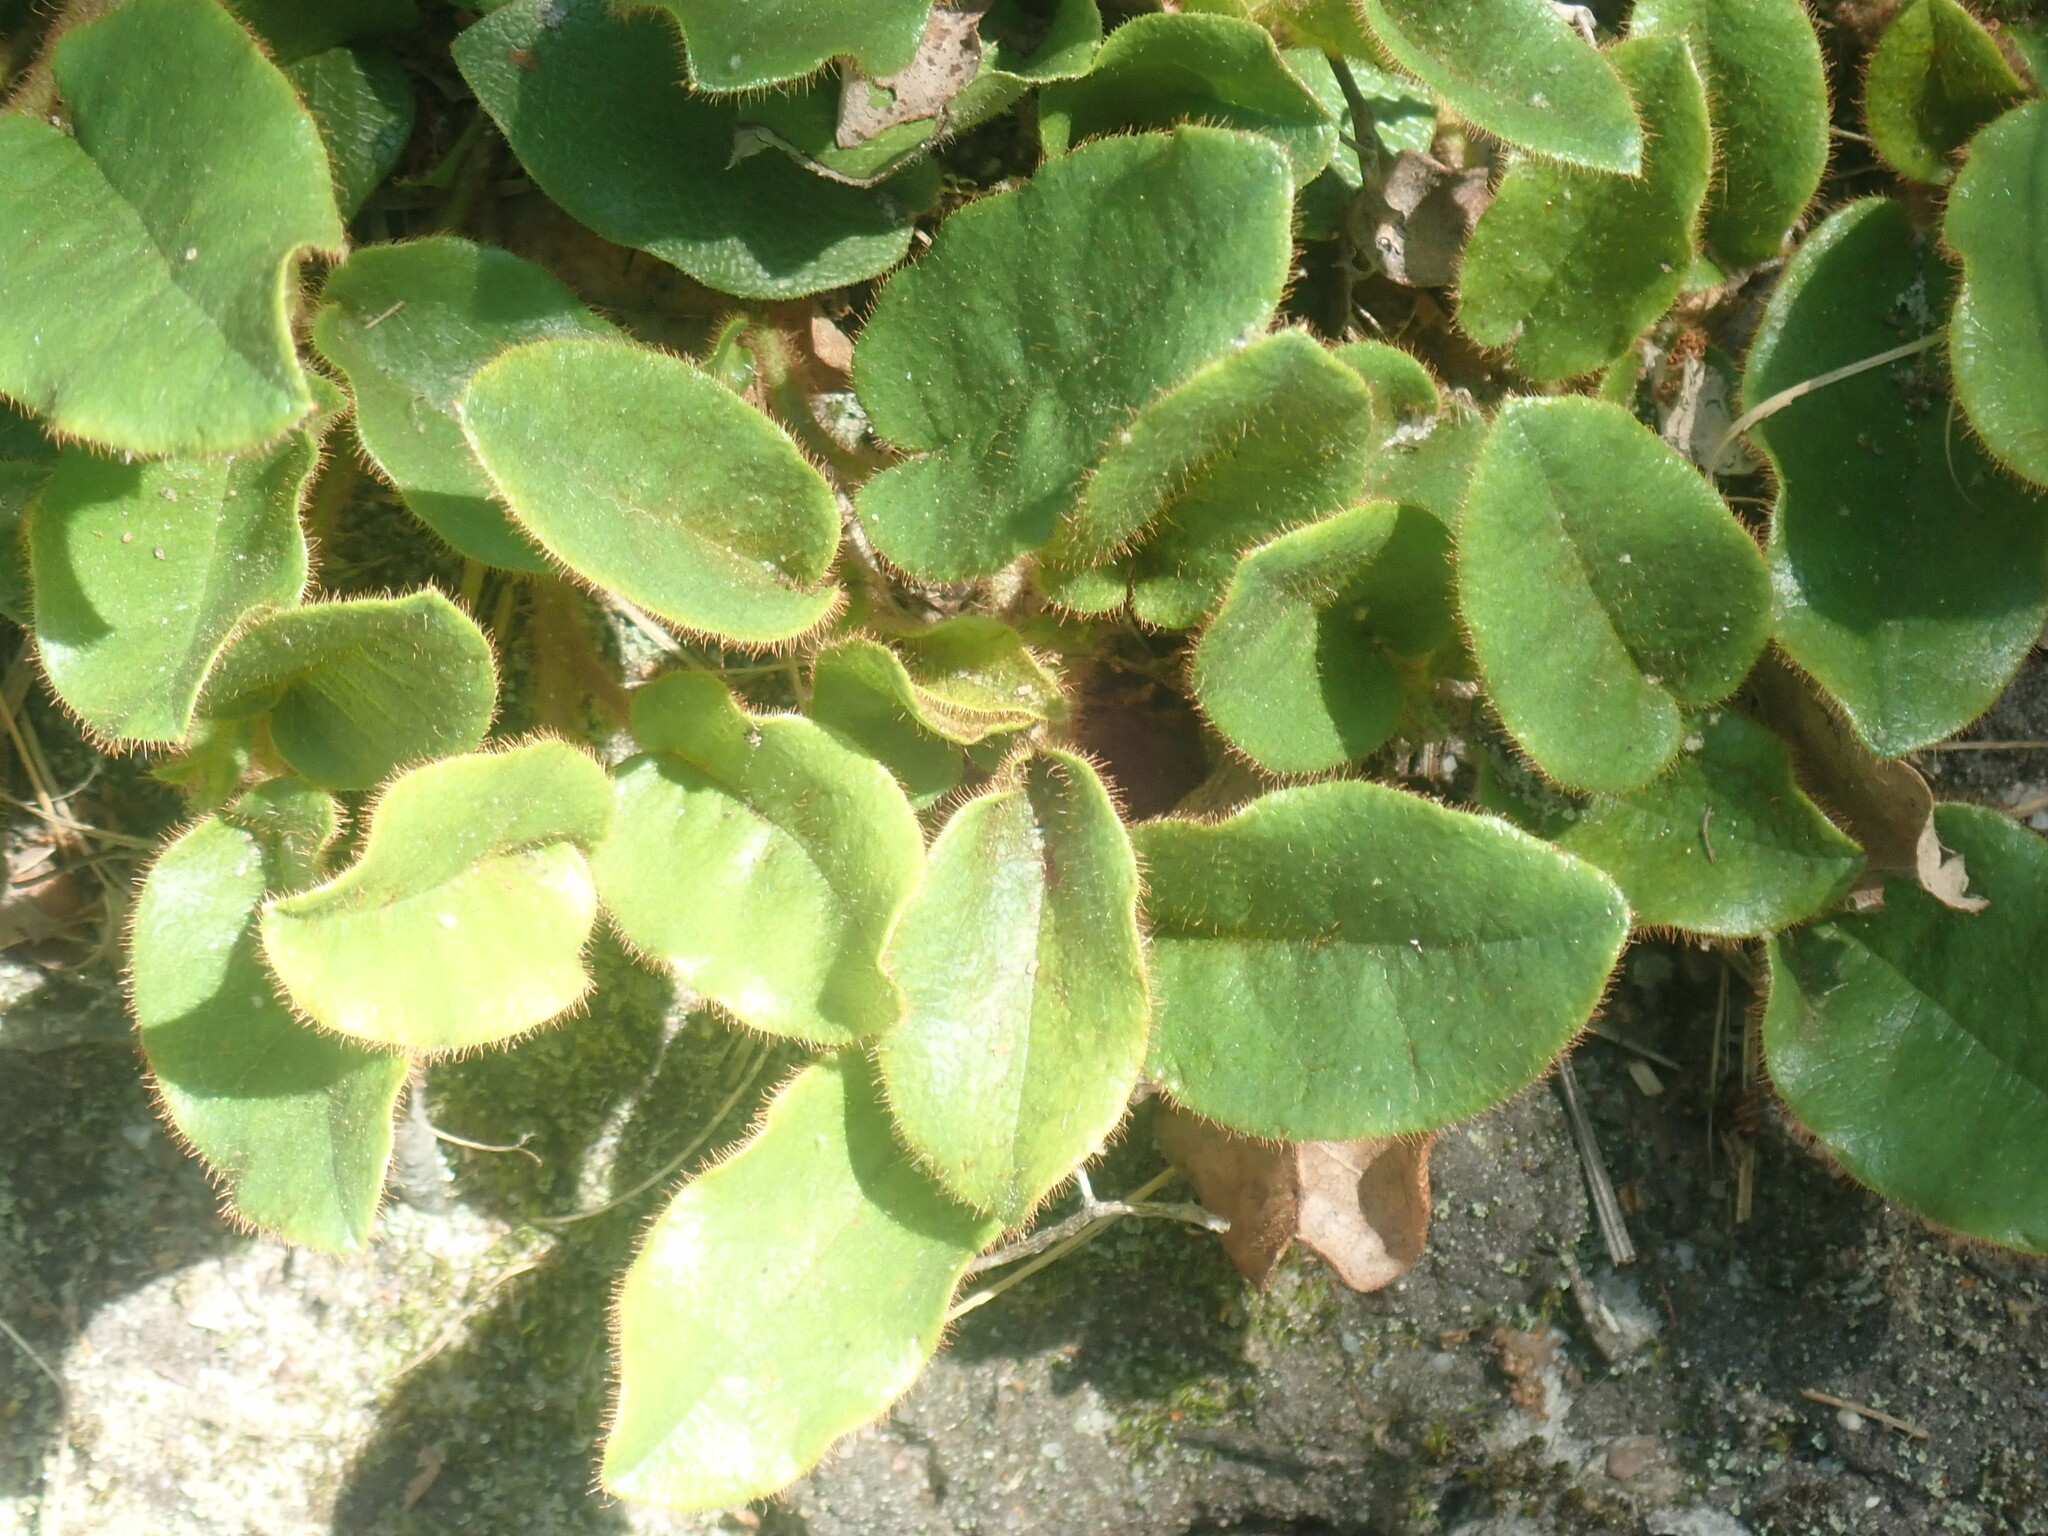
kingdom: Plantae
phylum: Tracheophyta
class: Magnoliopsida
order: Ericales
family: Ericaceae
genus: Epigaea
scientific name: Epigaea repens
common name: Gravelroot
